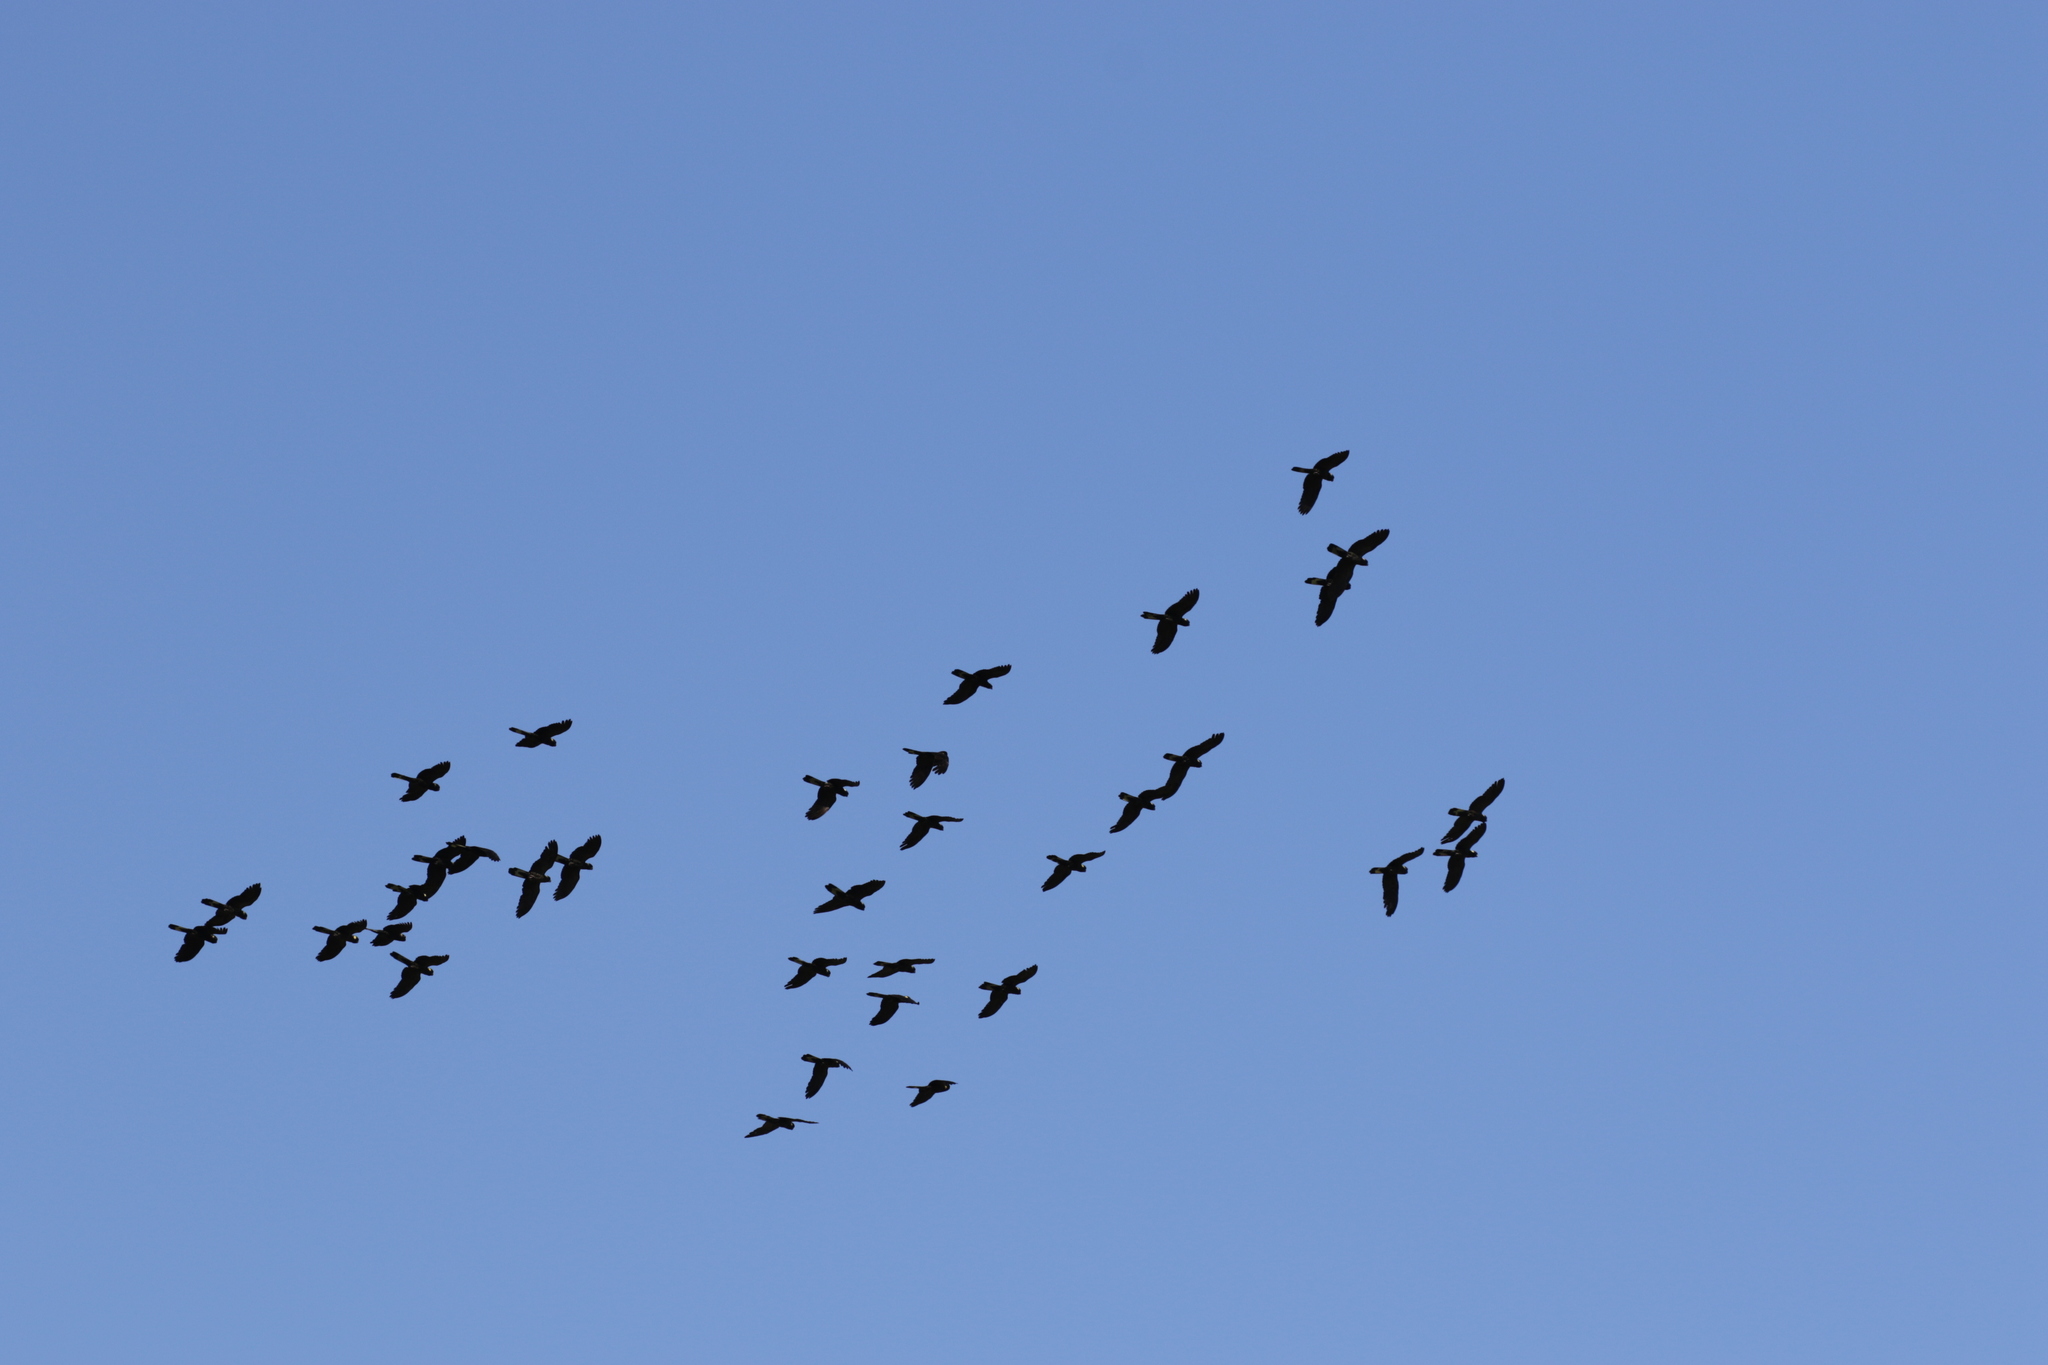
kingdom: Animalia
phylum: Chordata
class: Aves
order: Psittaciformes
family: Cacatuidae
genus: Zanda
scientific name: Zanda funerea
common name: Yellow-tailed black-cockatoo
